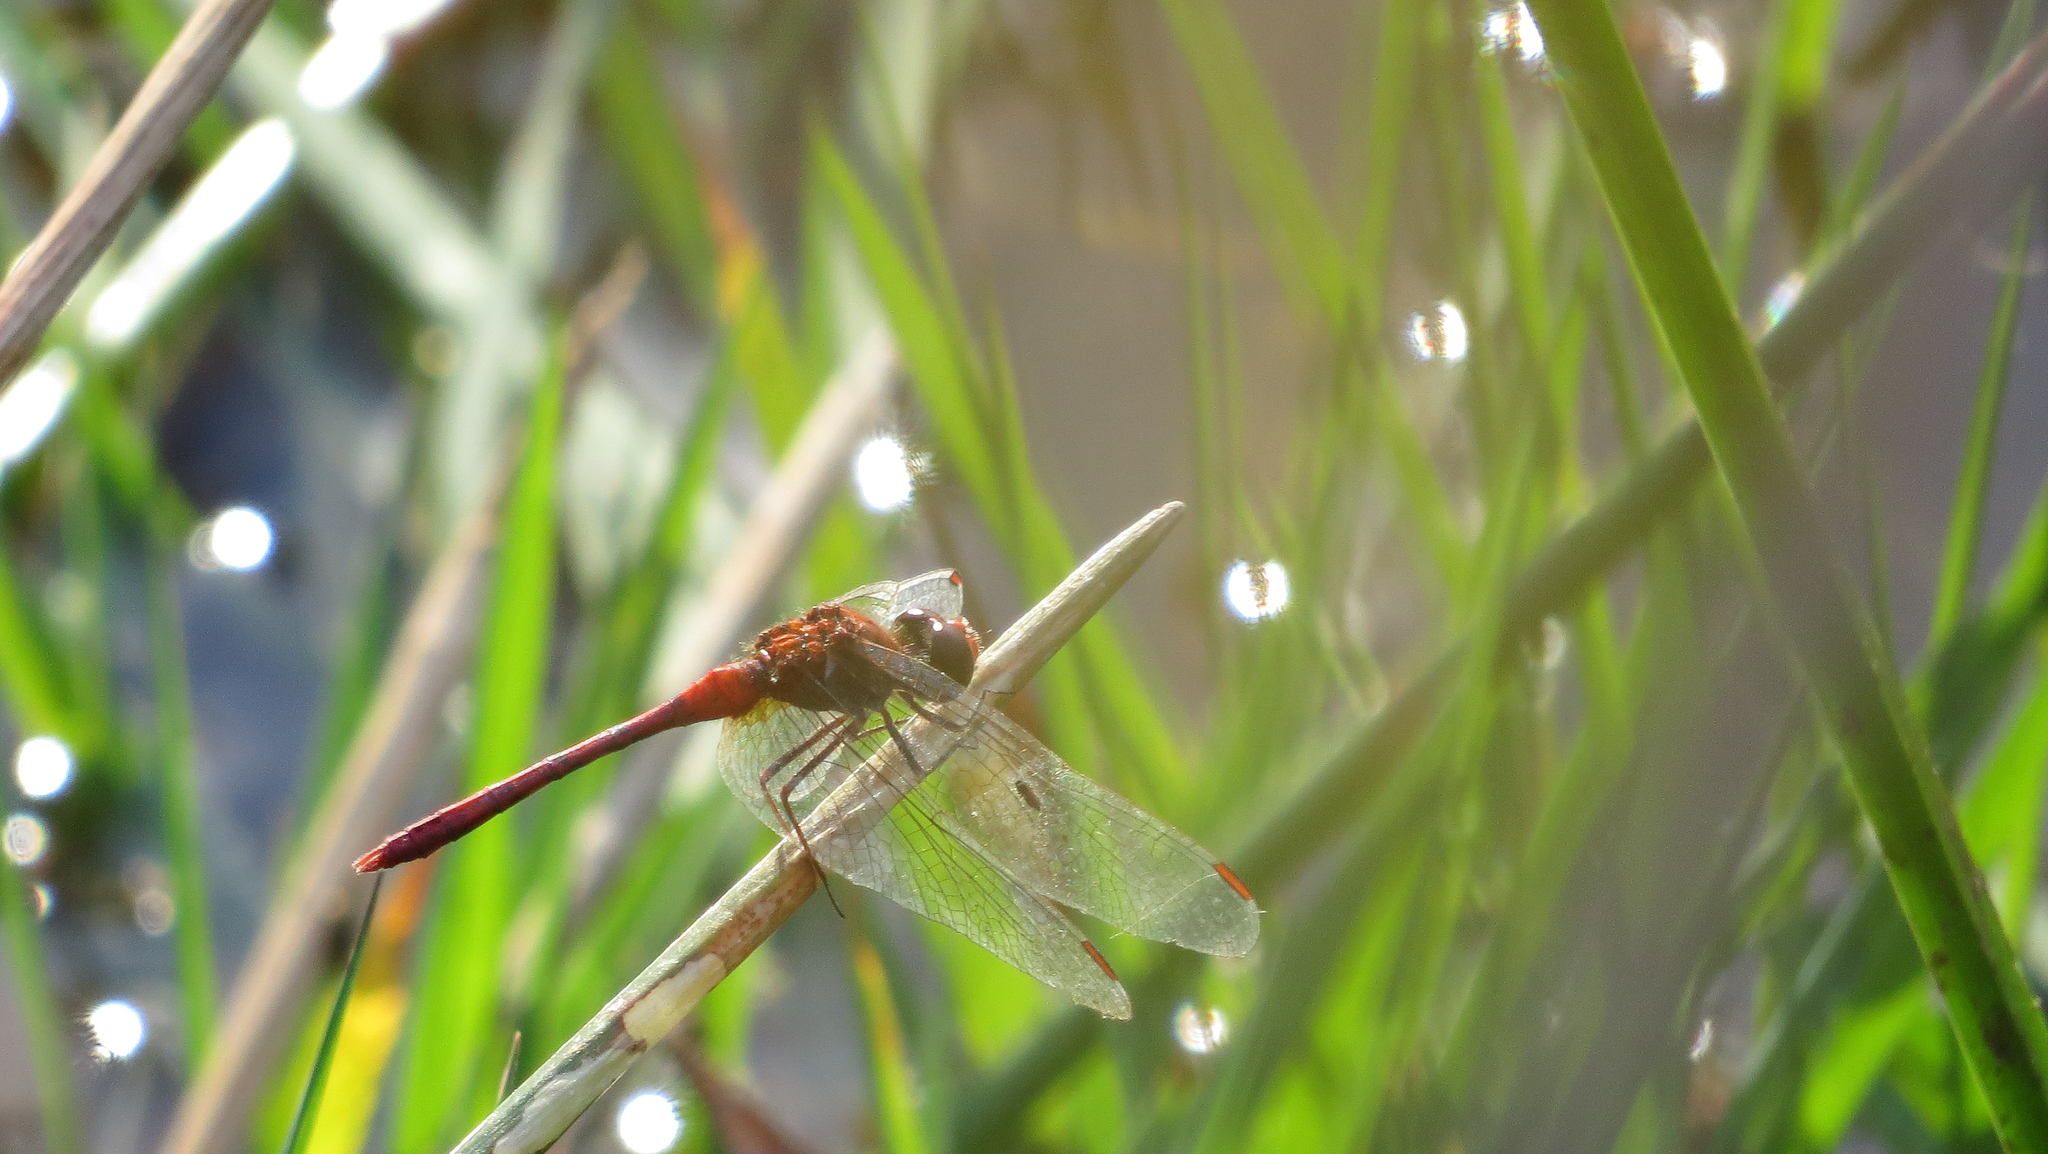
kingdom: Animalia
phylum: Arthropoda
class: Insecta
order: Odonata
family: Libellulidae
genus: Diplacodes
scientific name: Diplacodes bipunctata
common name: Red percher dragonfly
